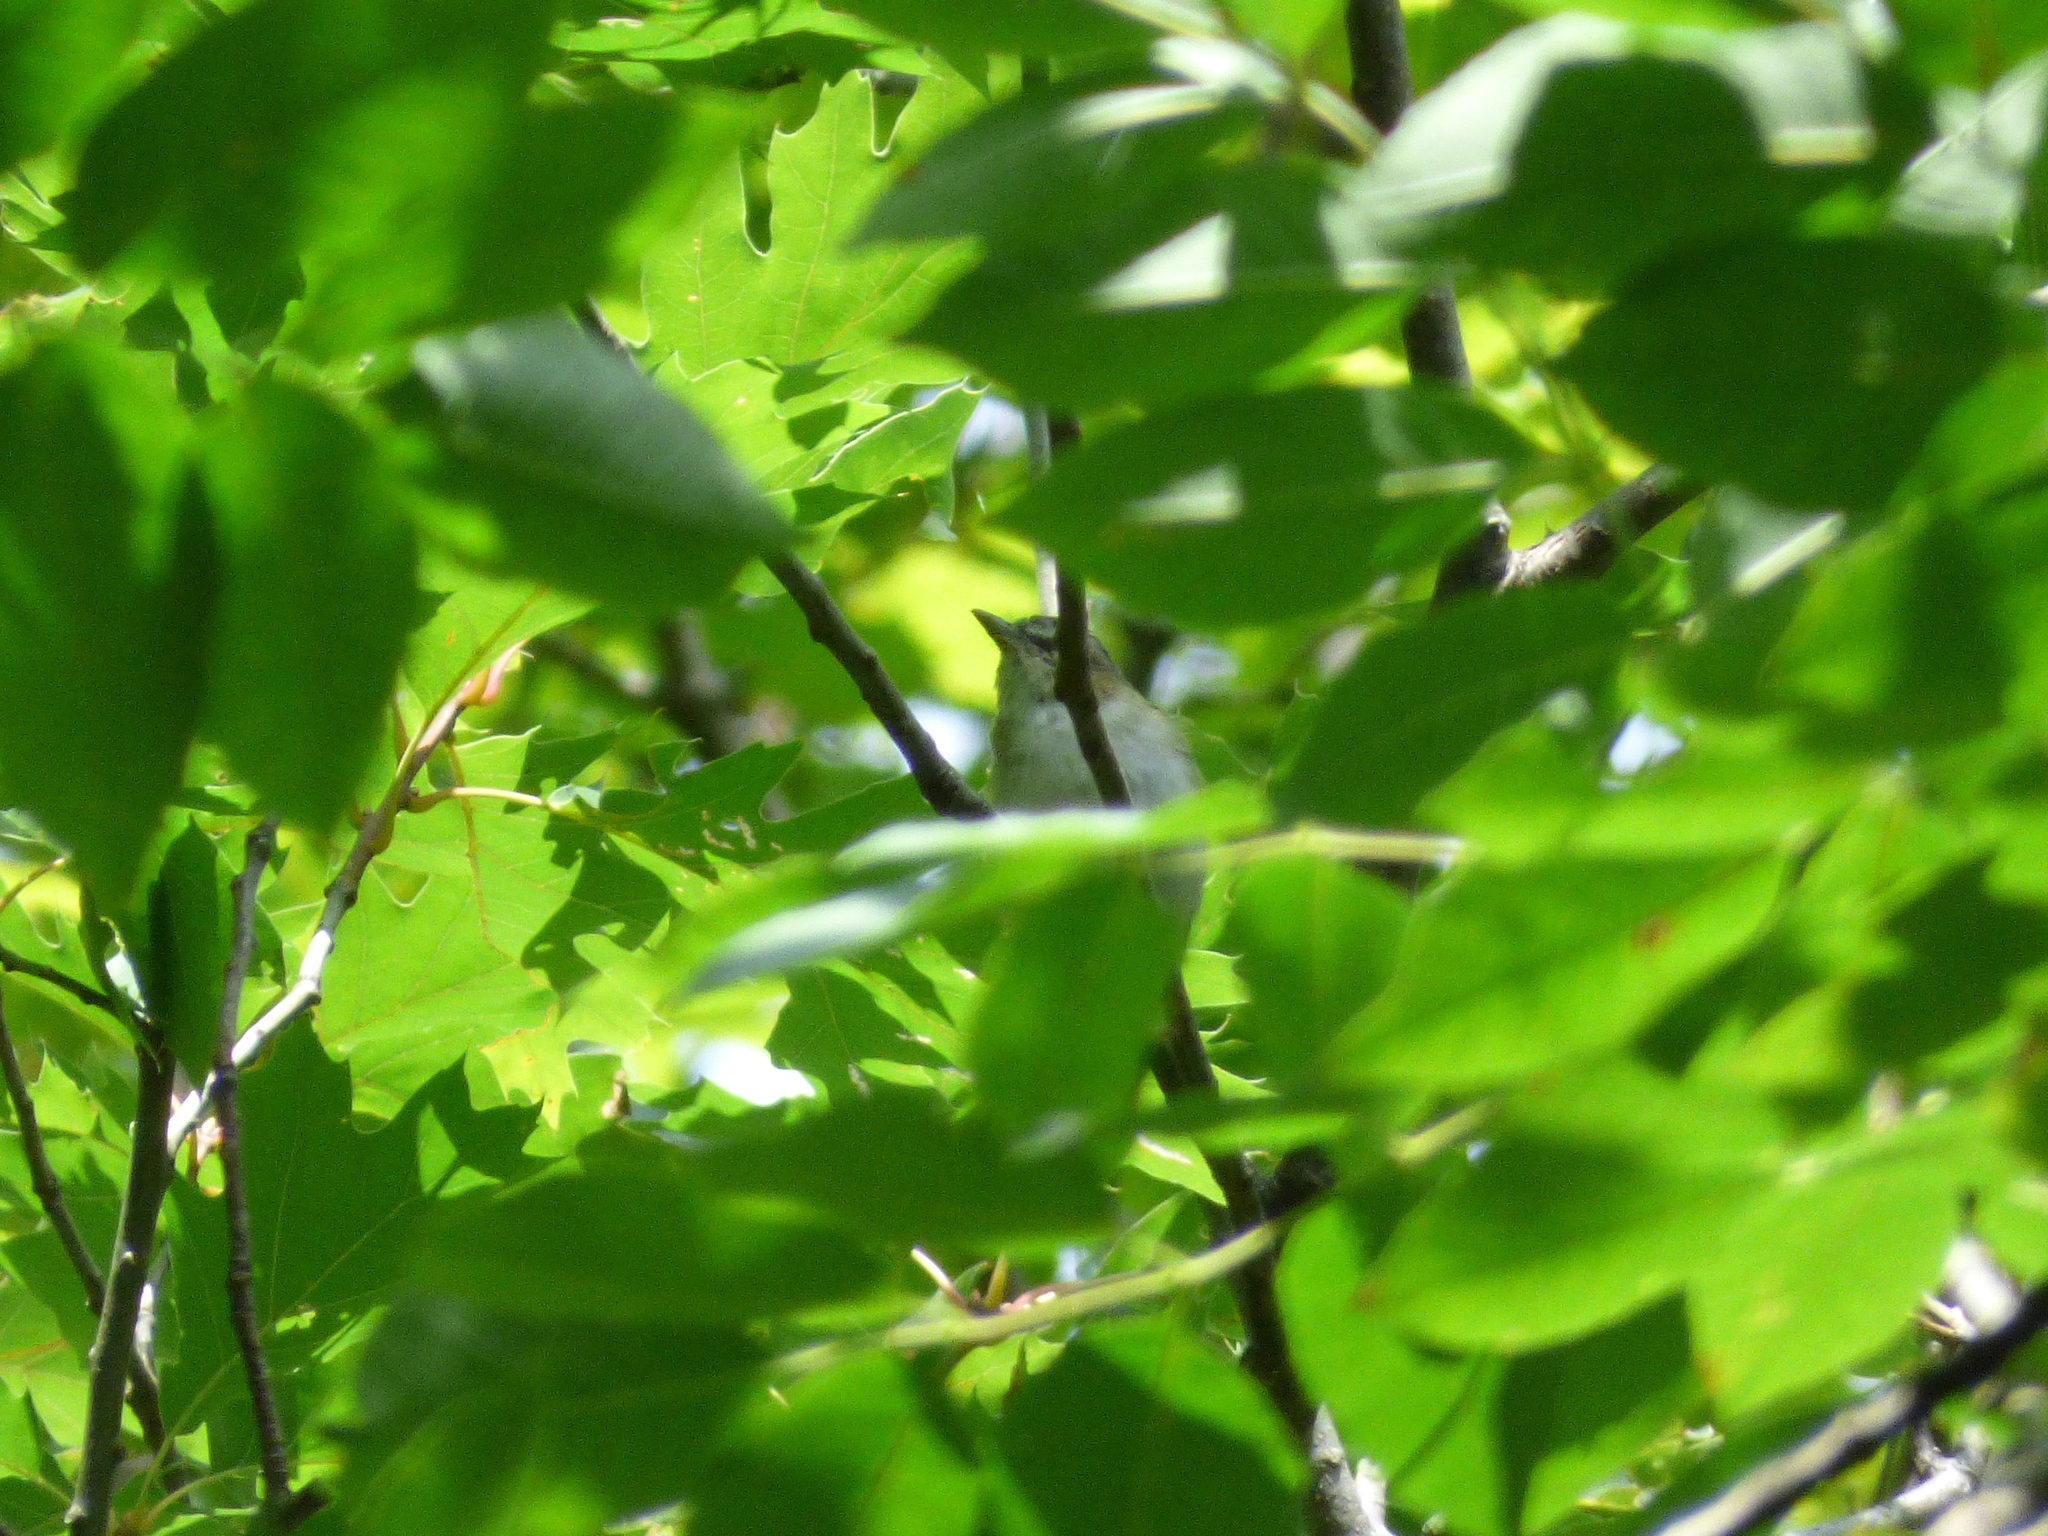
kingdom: Animalia
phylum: Chordata
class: Aves
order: Passeriformes
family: Vireonidae
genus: Vireo
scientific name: Vireo olivaceus
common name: Red-eyed vireo
